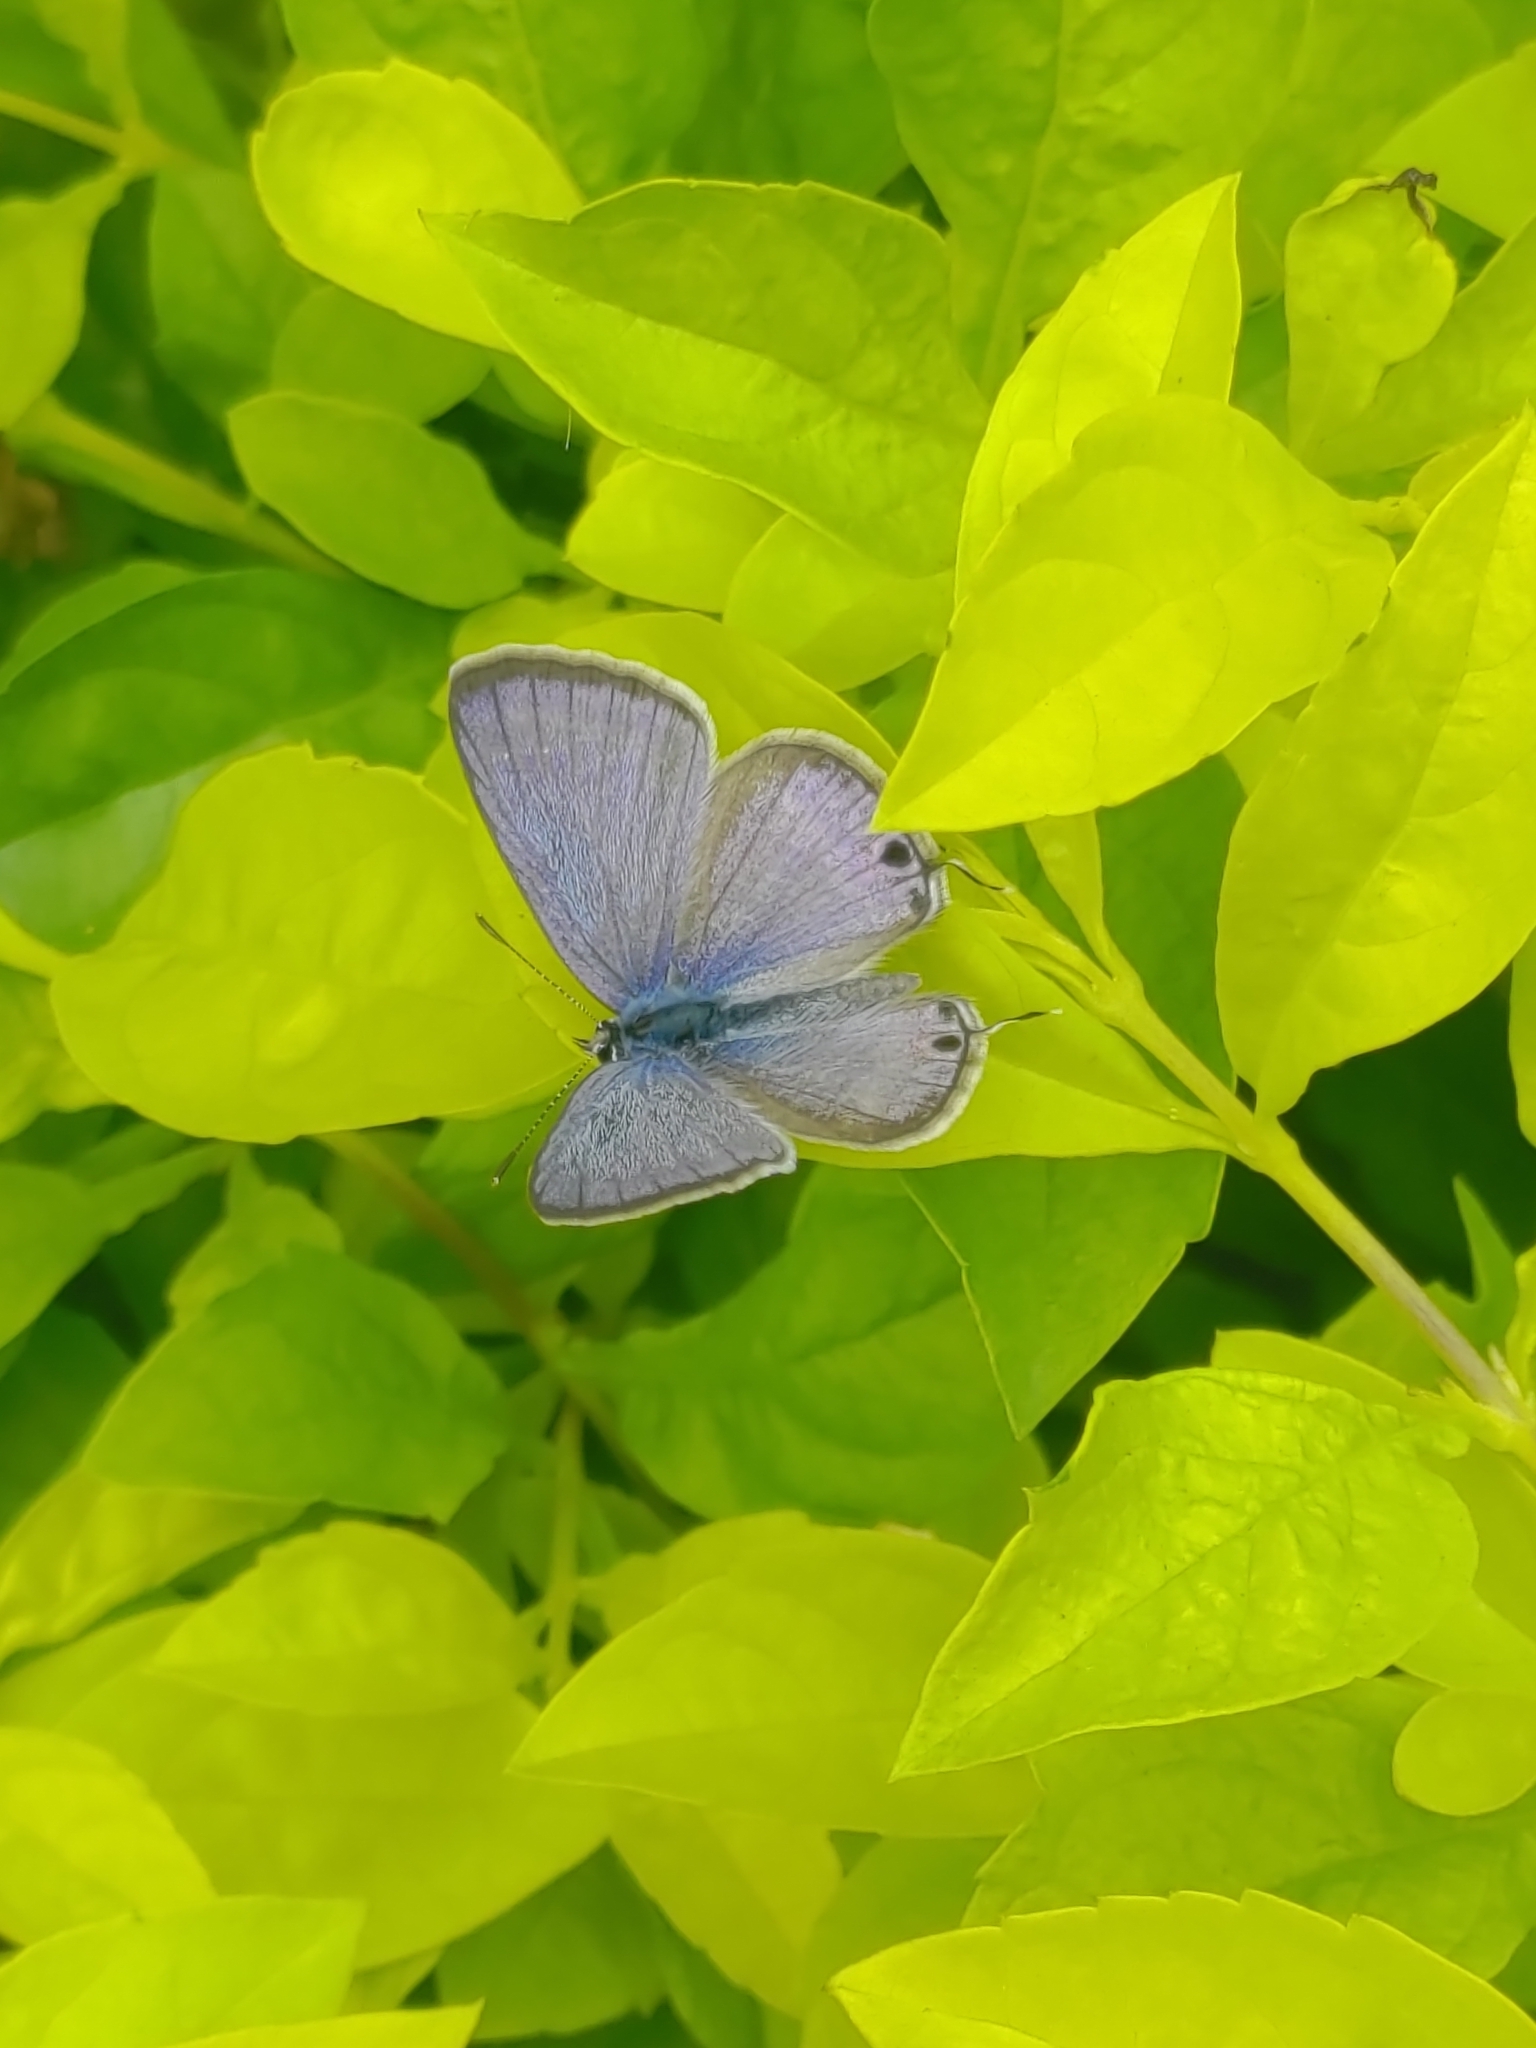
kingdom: Animalia
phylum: Arthropoda
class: Insecta
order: Lepidoptera
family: Lycaenidae
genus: Lampides
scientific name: Lampides boeticus
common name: Long-tailed blue
